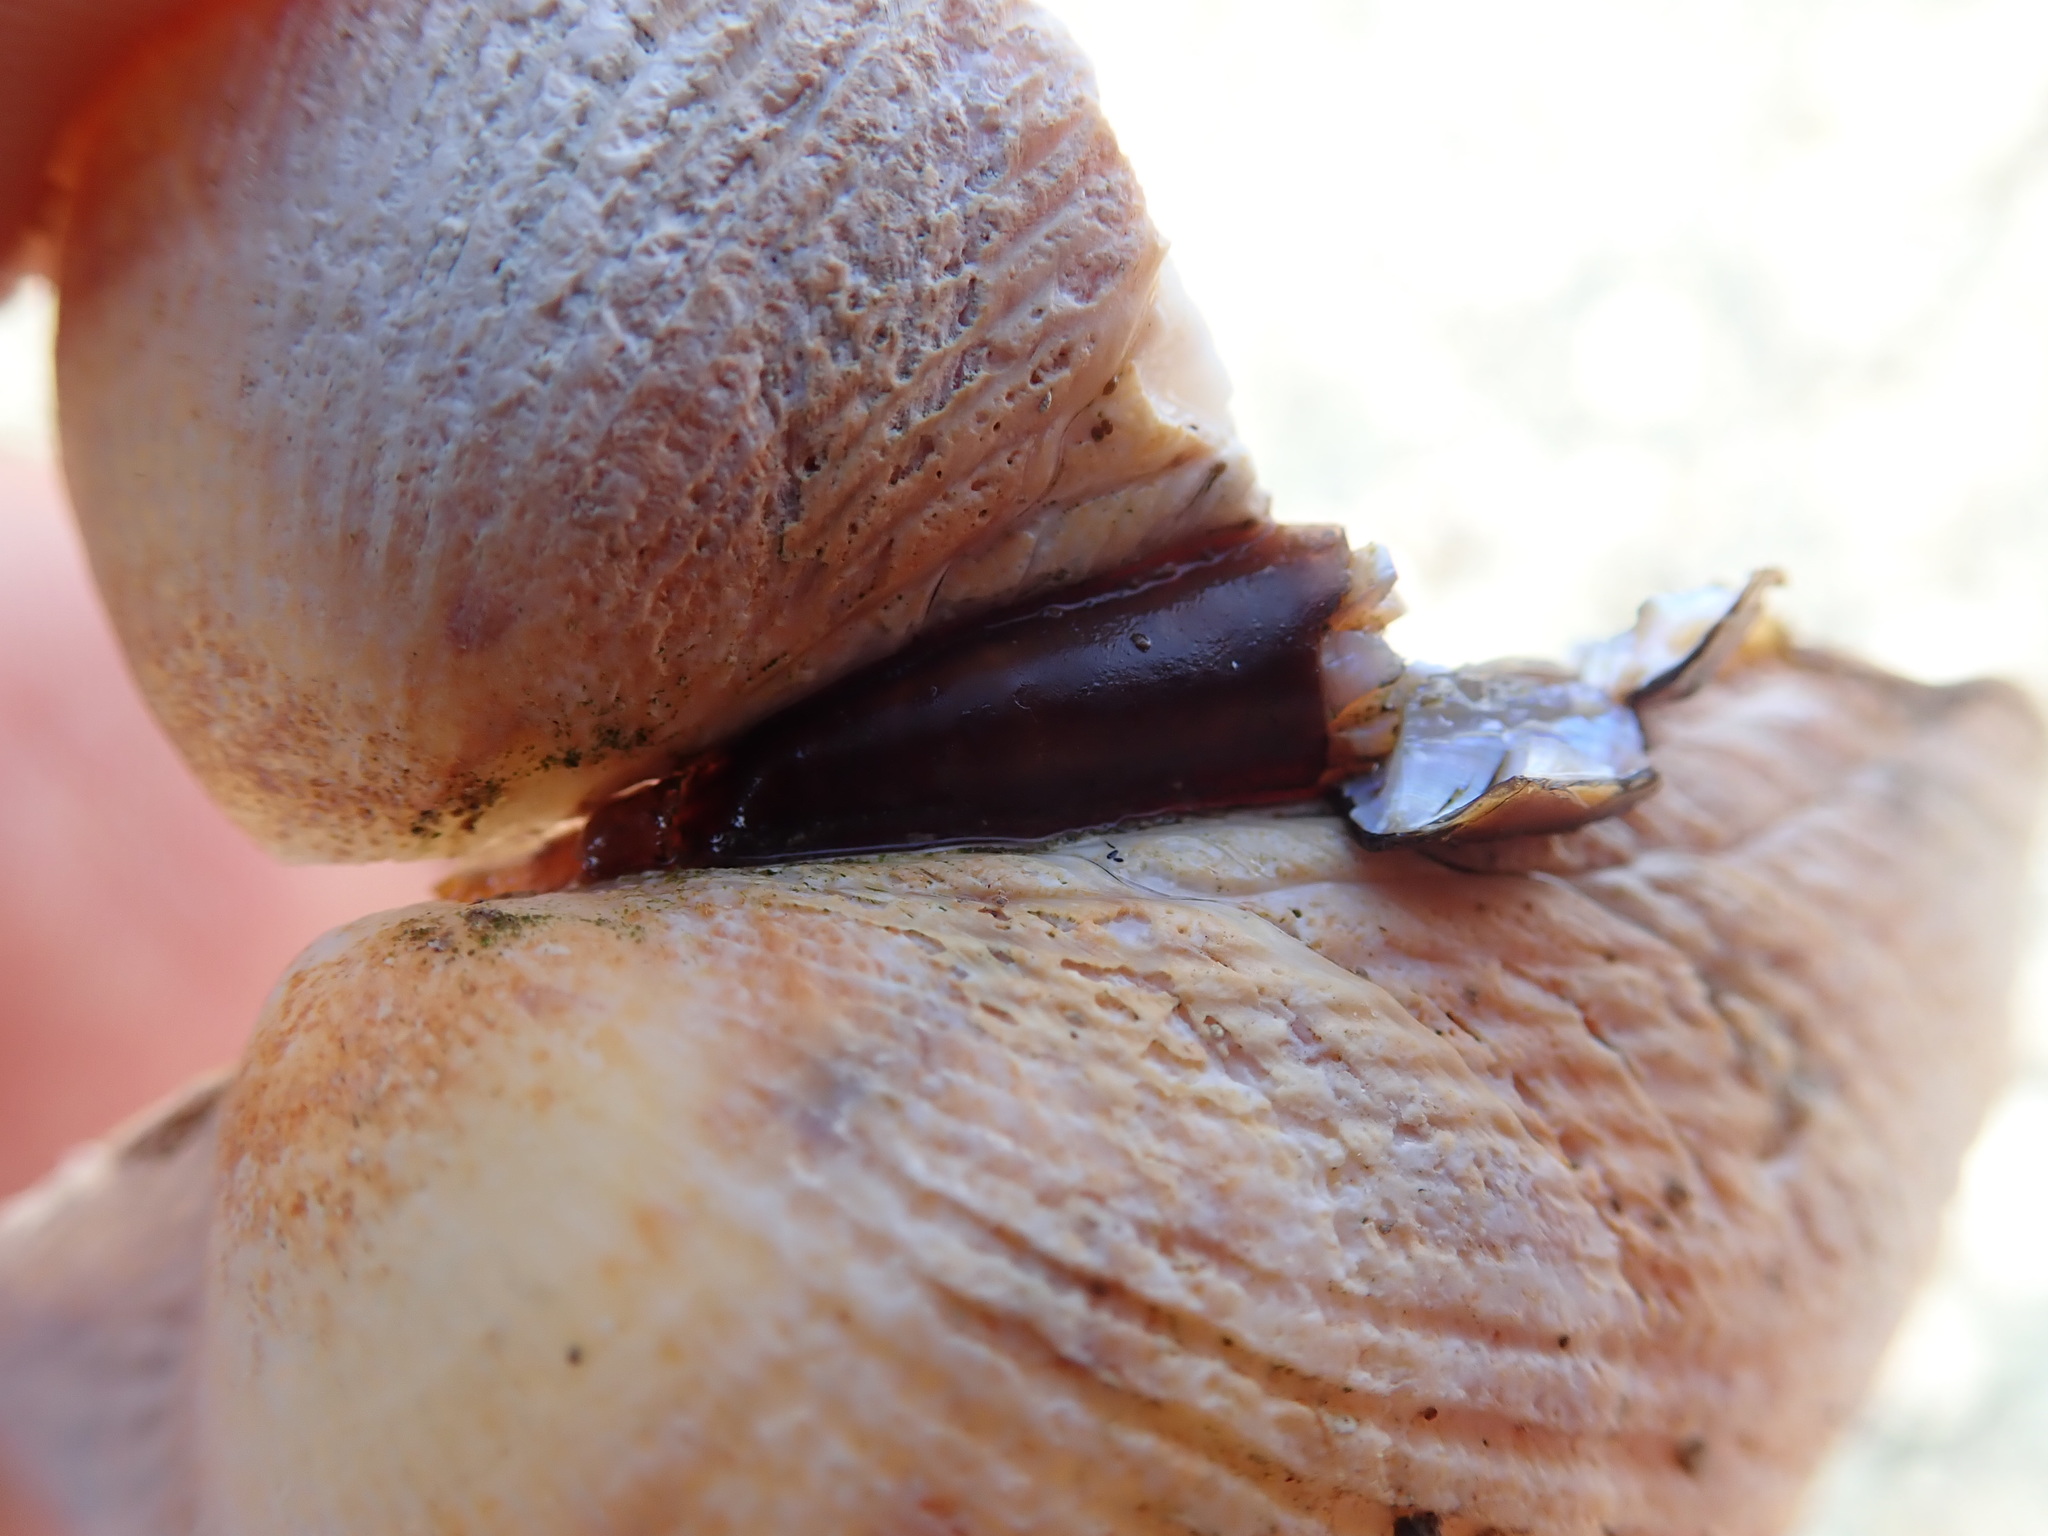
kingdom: Animalia
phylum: Mollusca
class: Bivalvia
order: Cardiida
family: Cardiidae
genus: Clinocardium
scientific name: Clinocardium nuttallii
